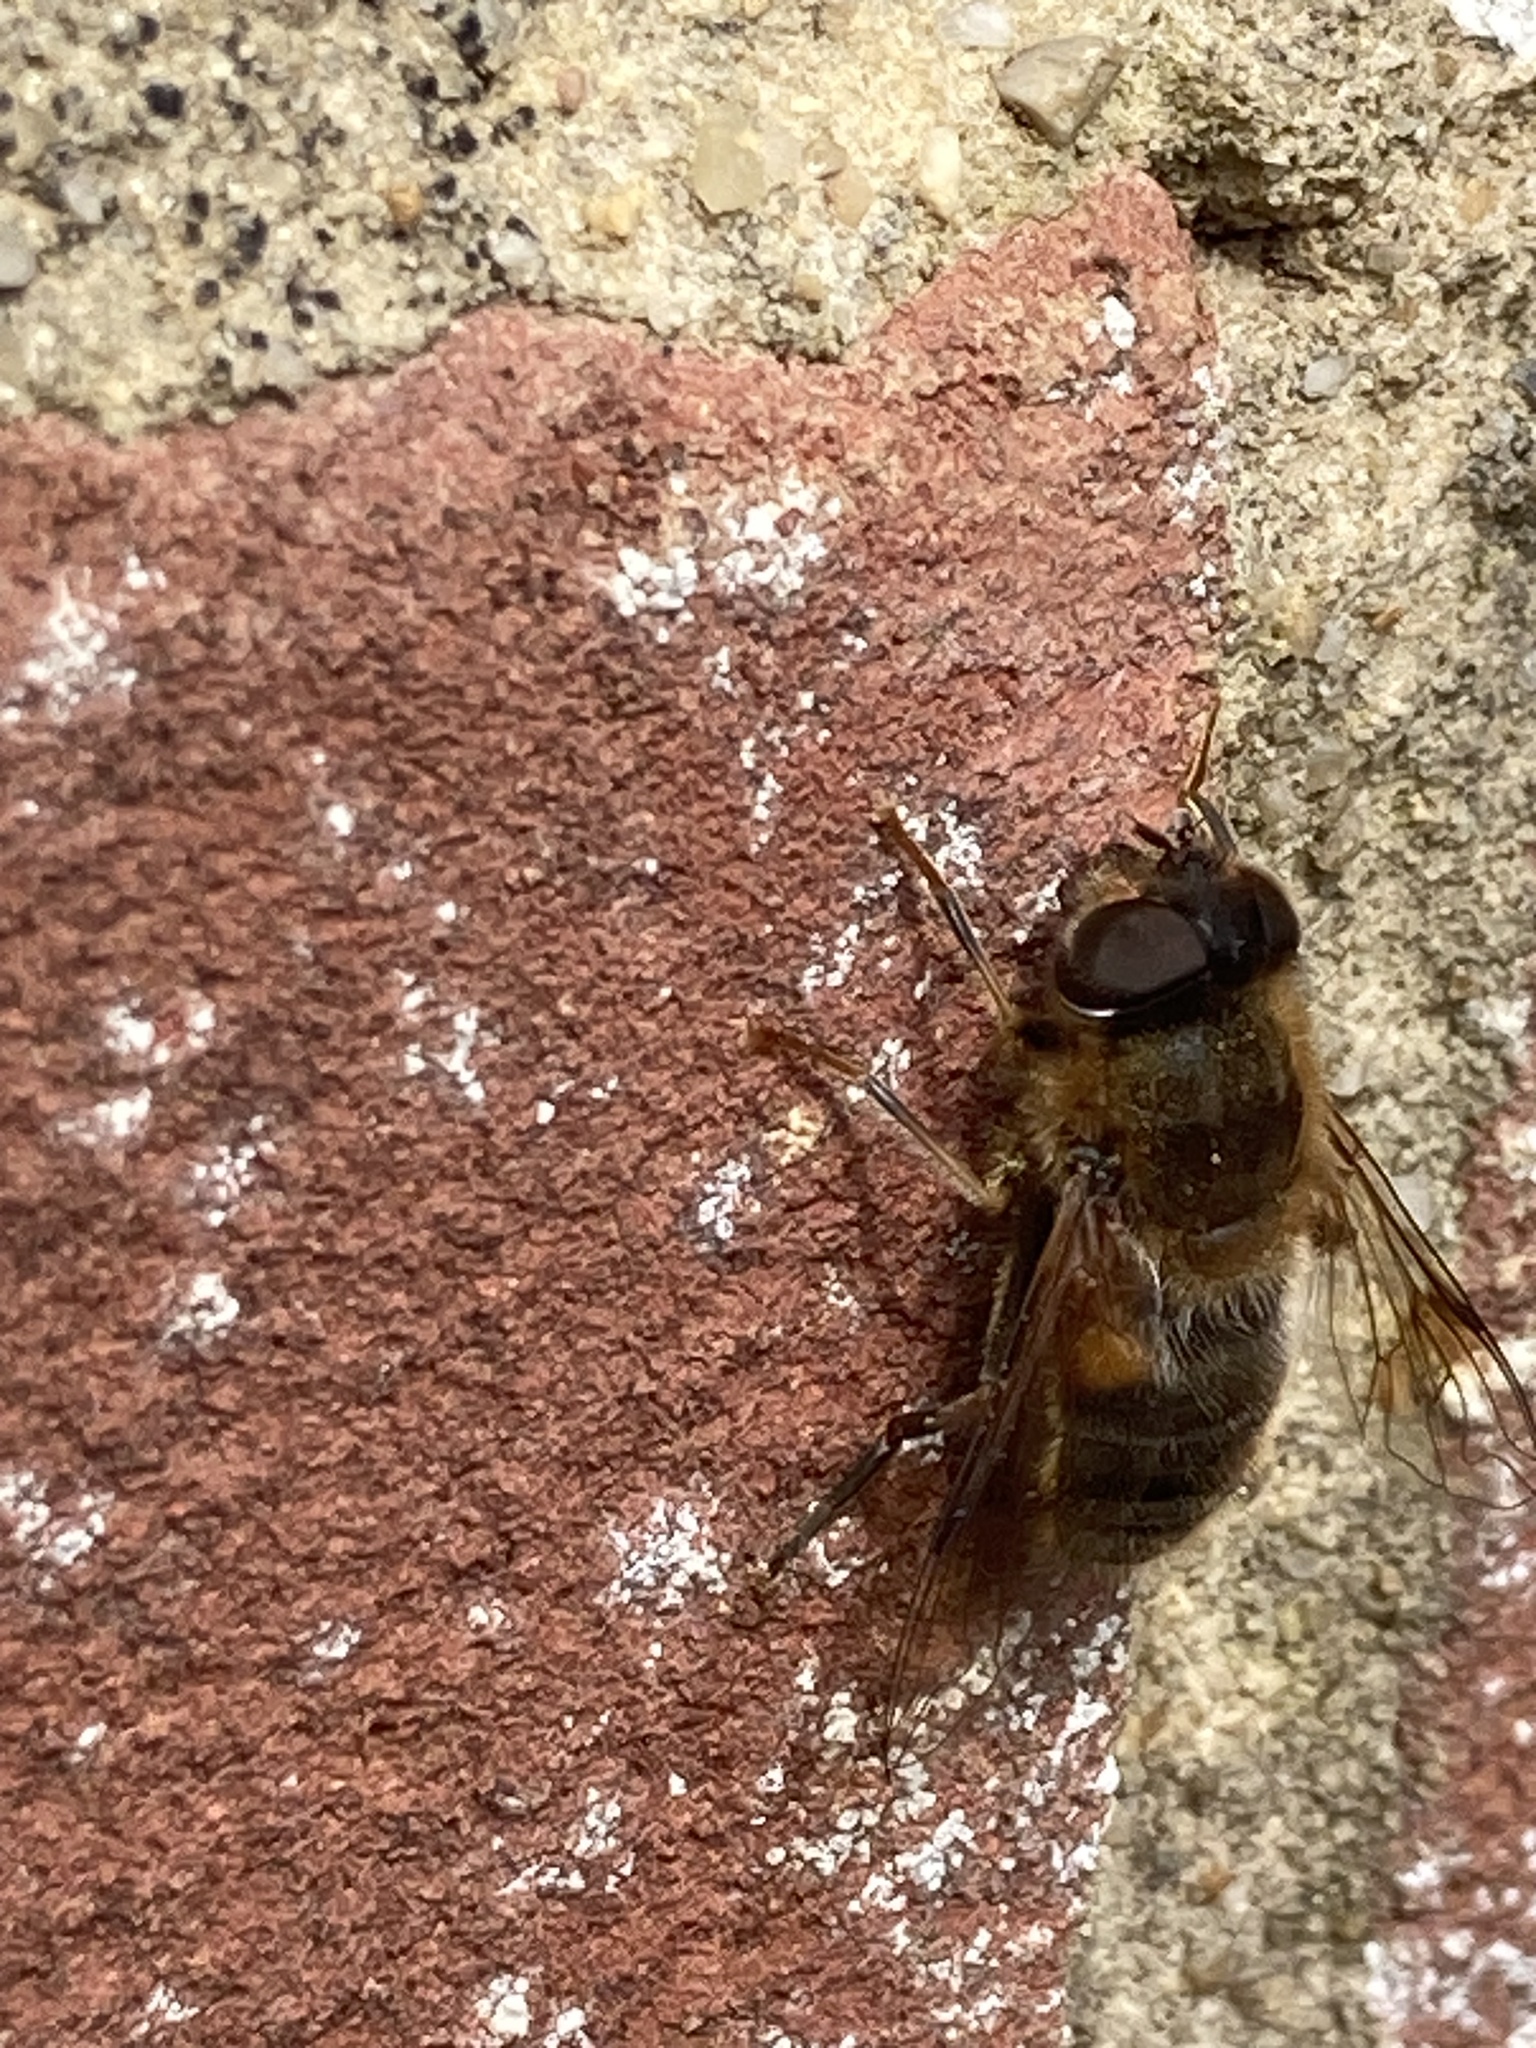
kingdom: Animalia
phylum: Arthropoda
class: Insecta
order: Diptera
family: Syrphidae
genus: Eristalis
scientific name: Eristalis pertinax
